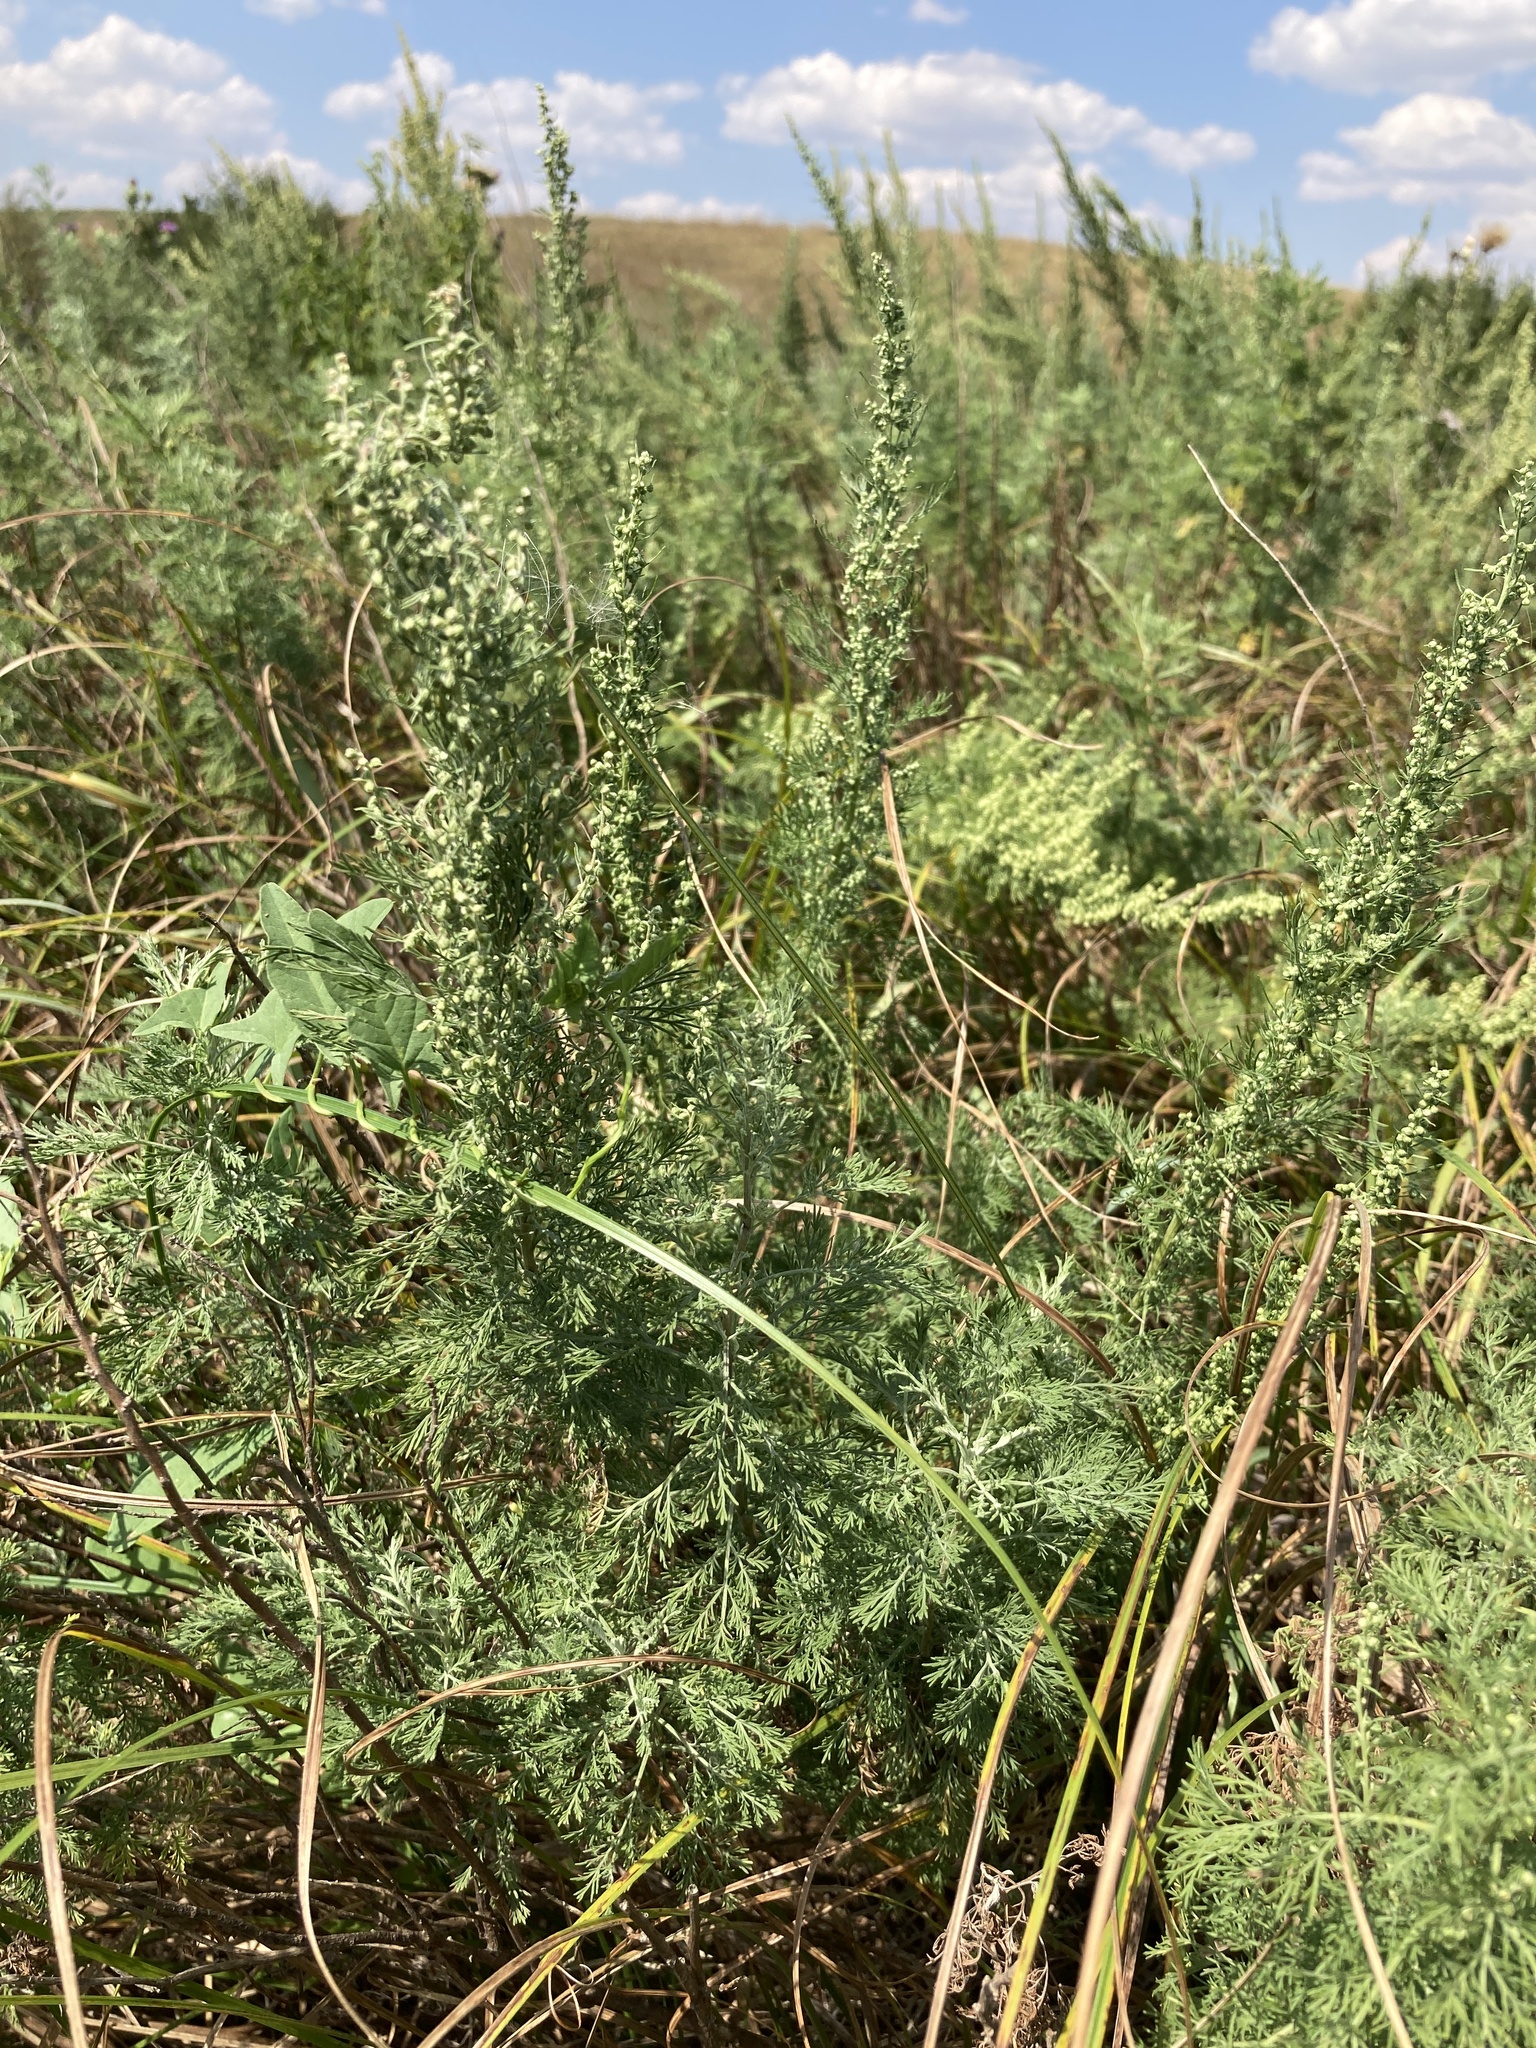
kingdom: Plantae
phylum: Tracheophyta
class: Magnoliopsida
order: Asterales
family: Asteraceae
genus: Artemisia
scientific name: Artemisia abrotanum
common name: Southernwood
